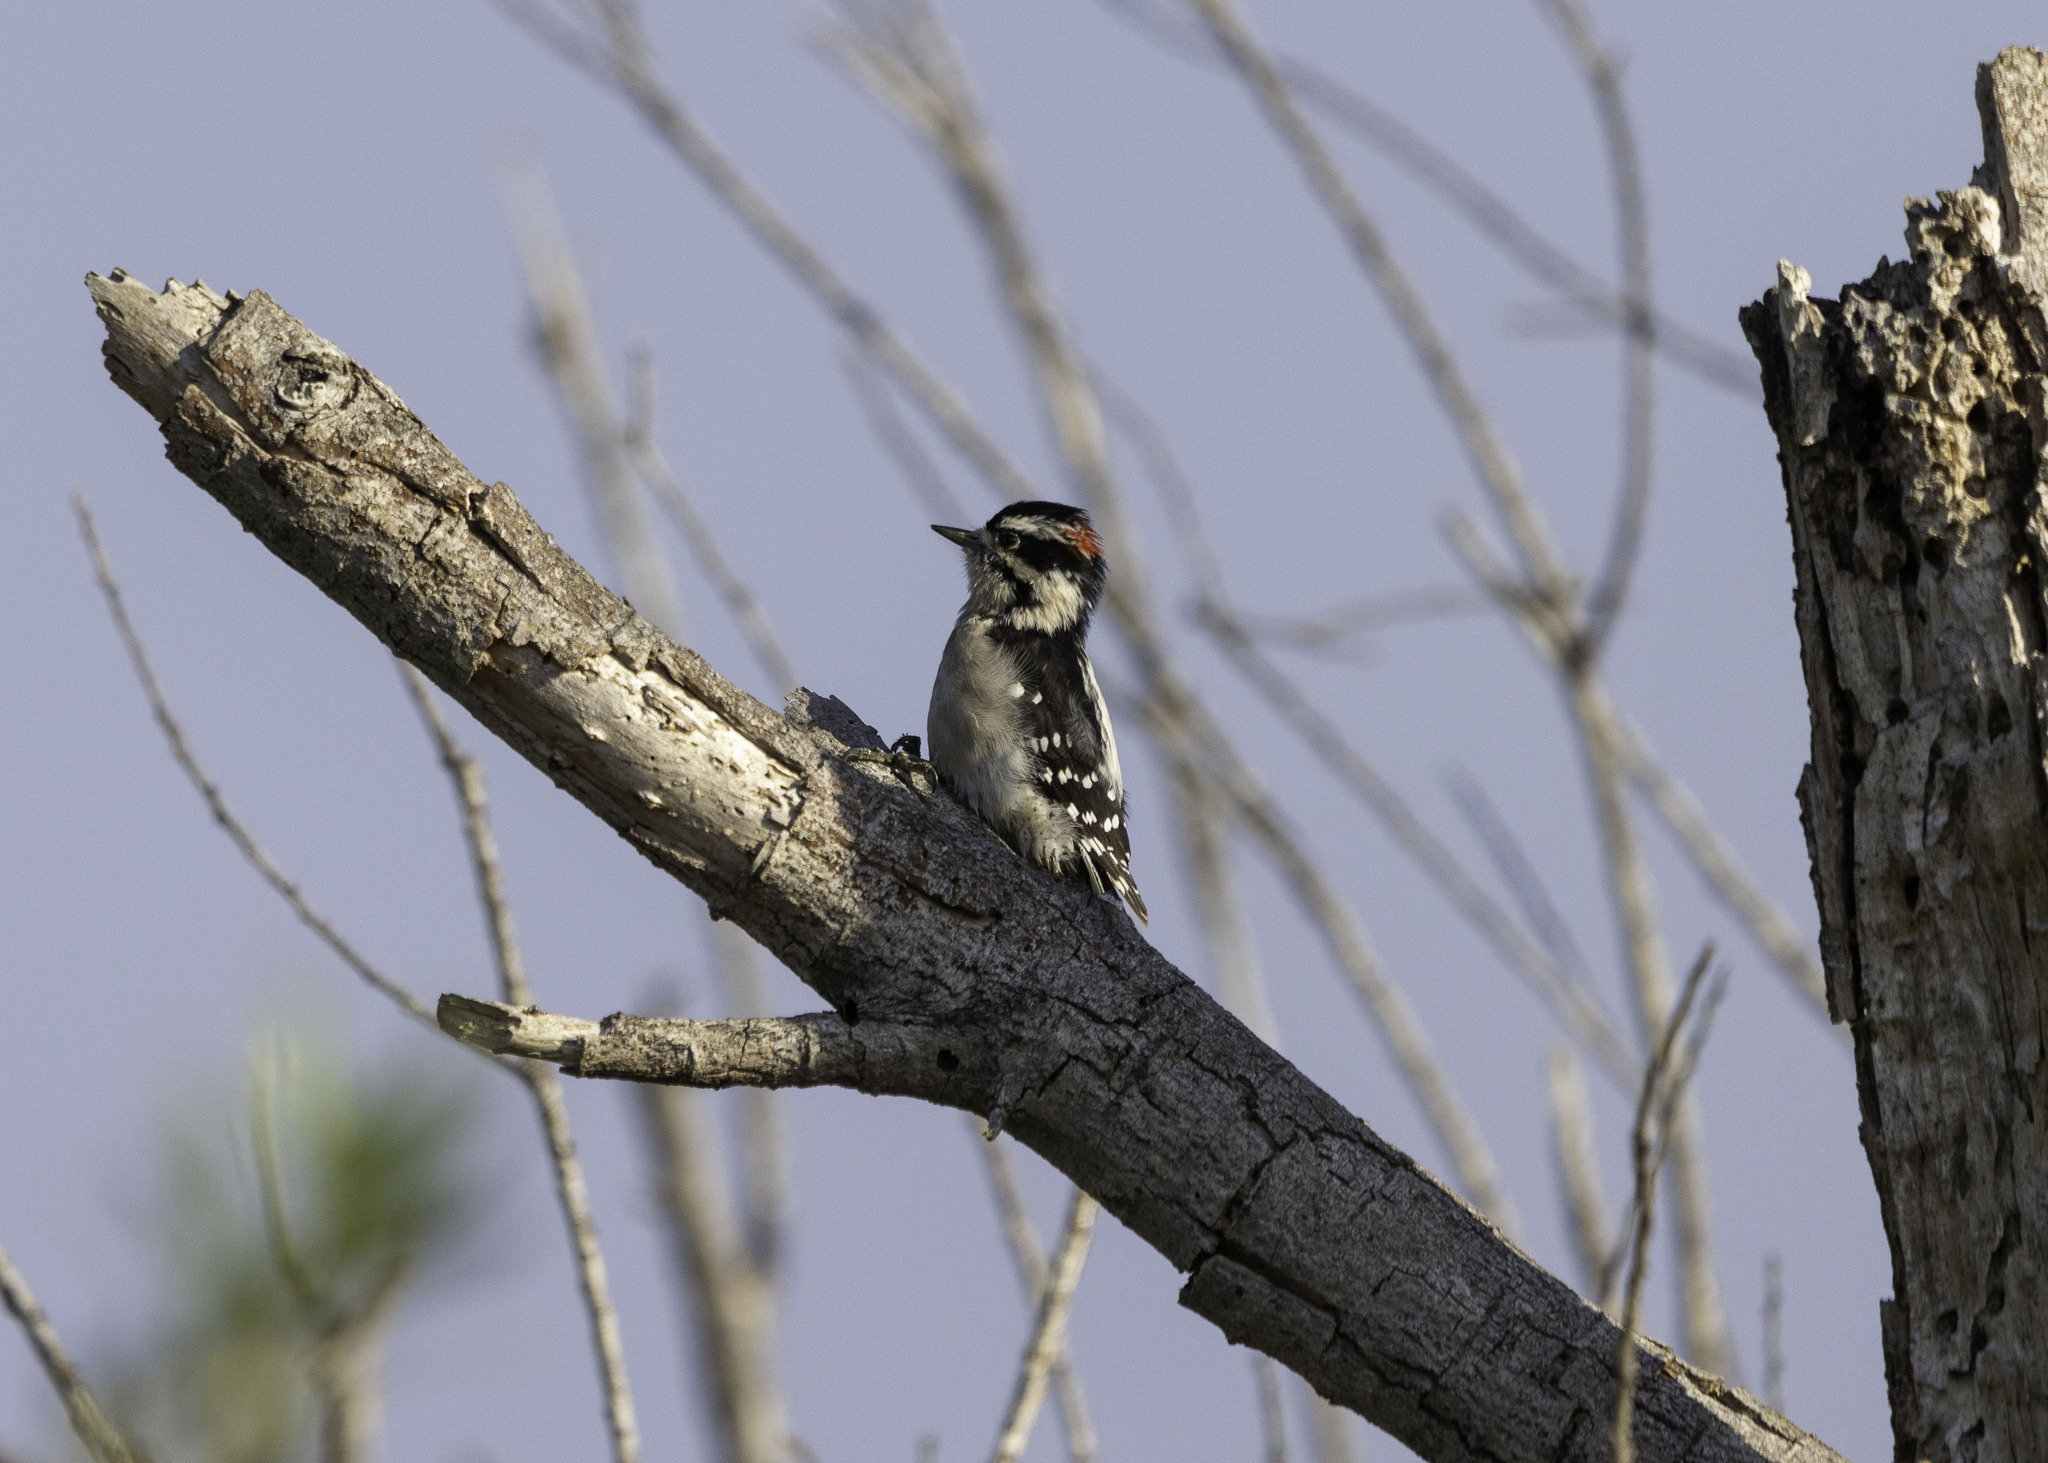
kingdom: Animalia
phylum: Chordata
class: Aves
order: Piciformes
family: Picidae
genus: Dryobates
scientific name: Dryobates pubescens
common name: Downy woodpecker
